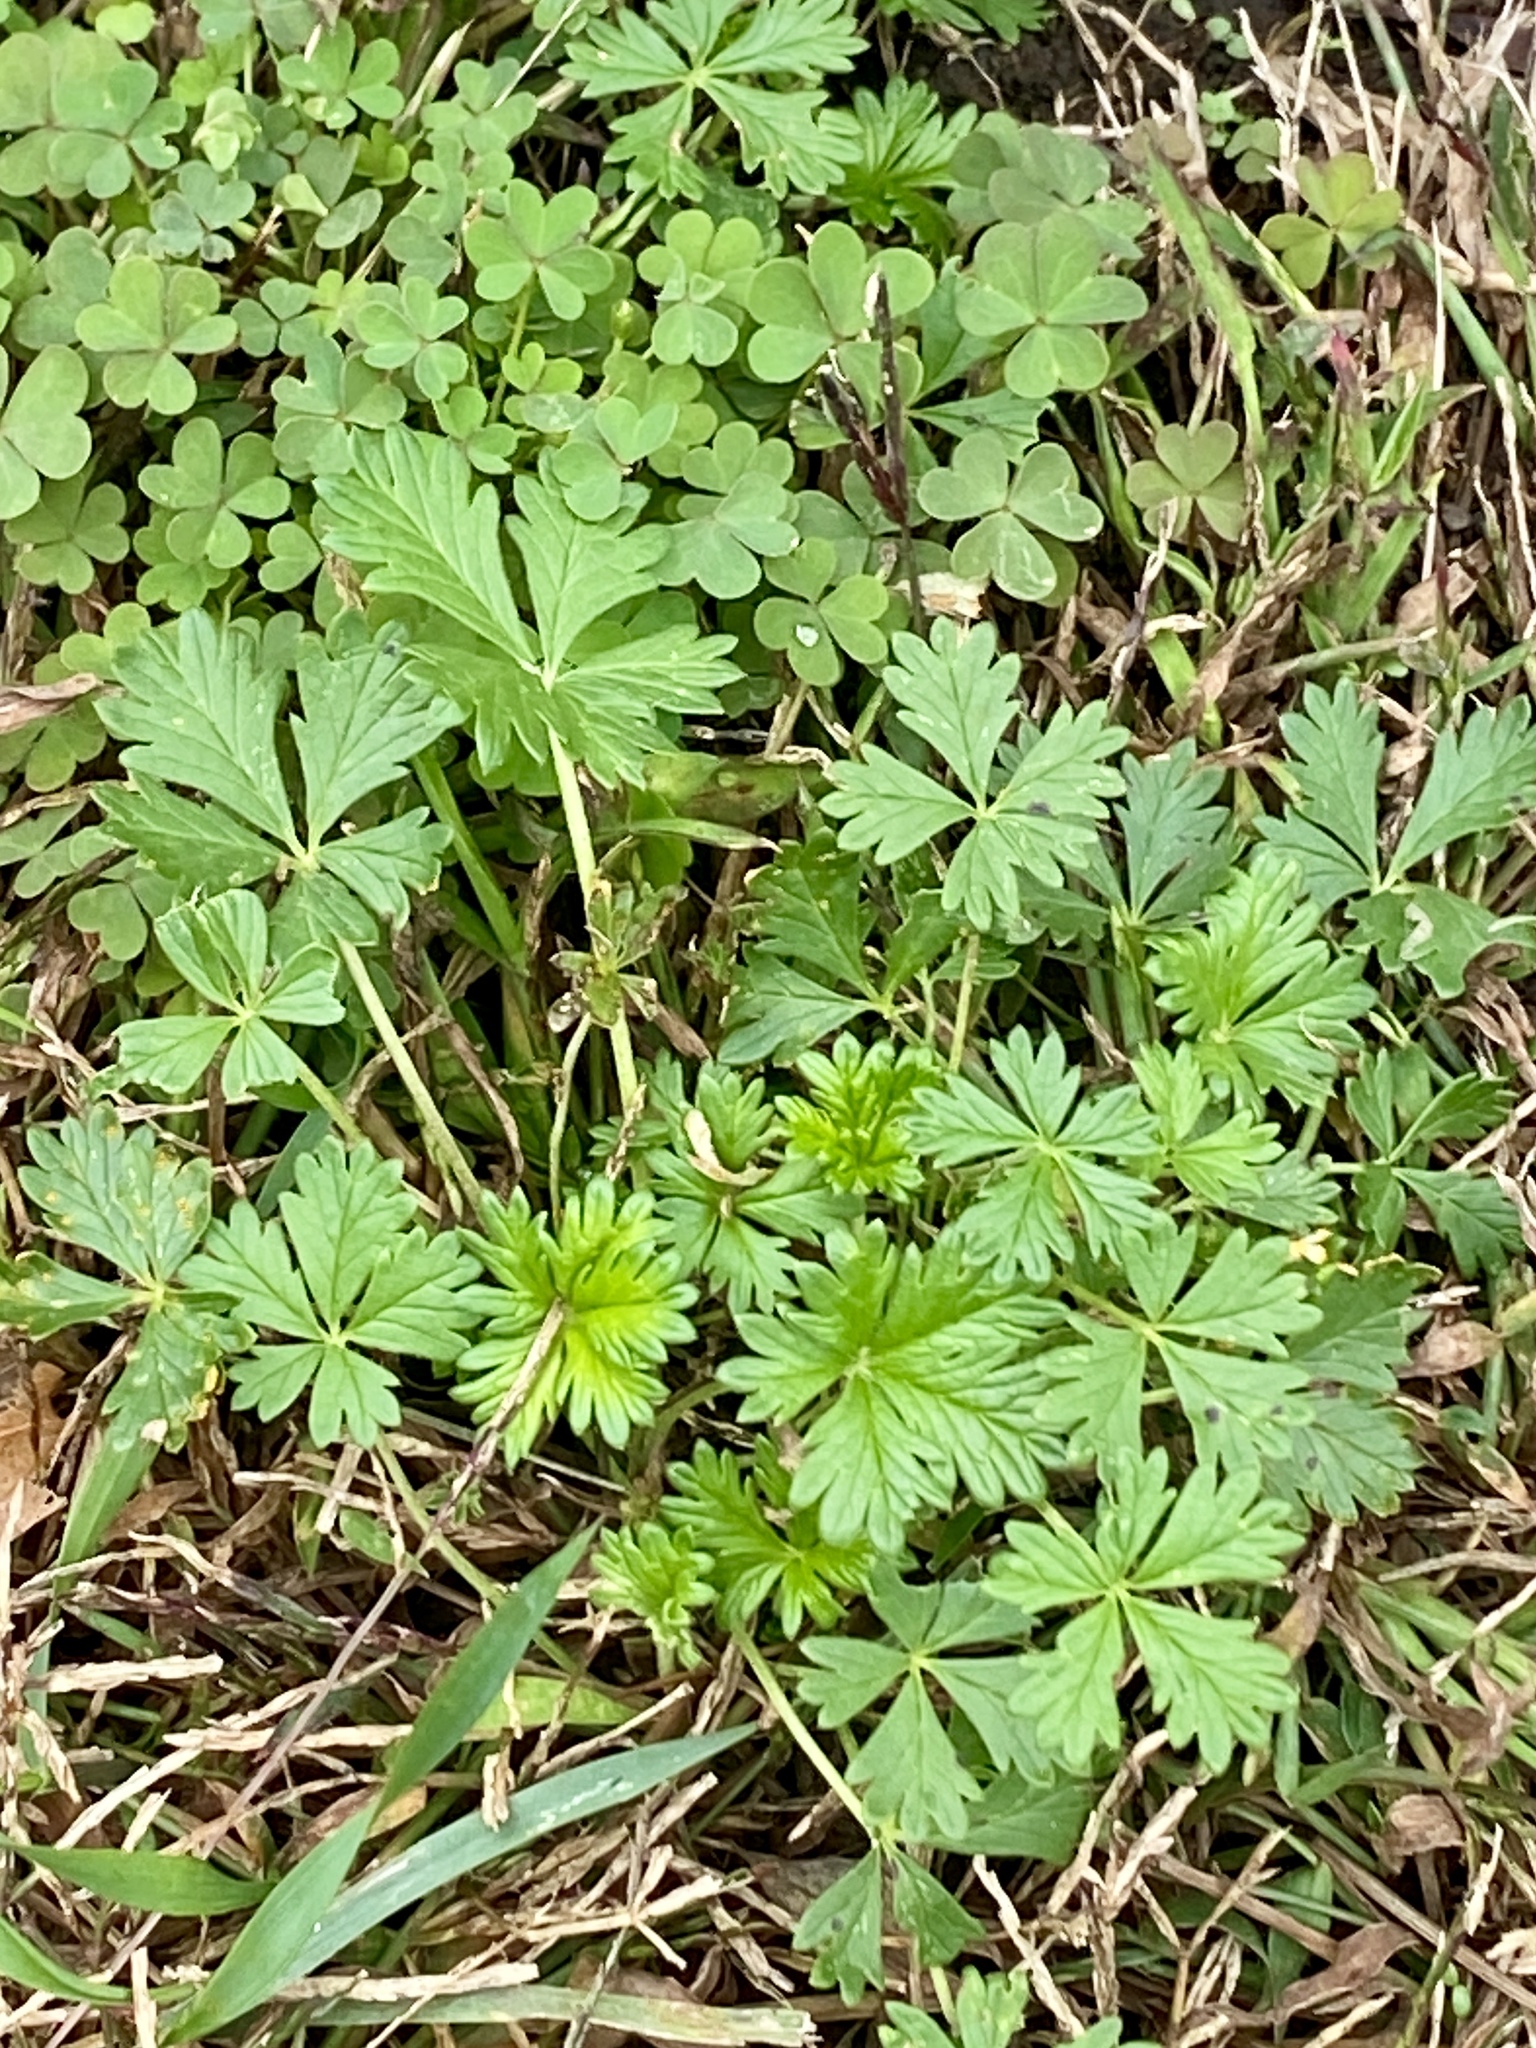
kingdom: Plantae
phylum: Tracheophyta
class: Magnoliopsida
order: Rosales
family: Rosaceae
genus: Potentilla
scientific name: Potentilla argentea
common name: Hoary cinquefoil
